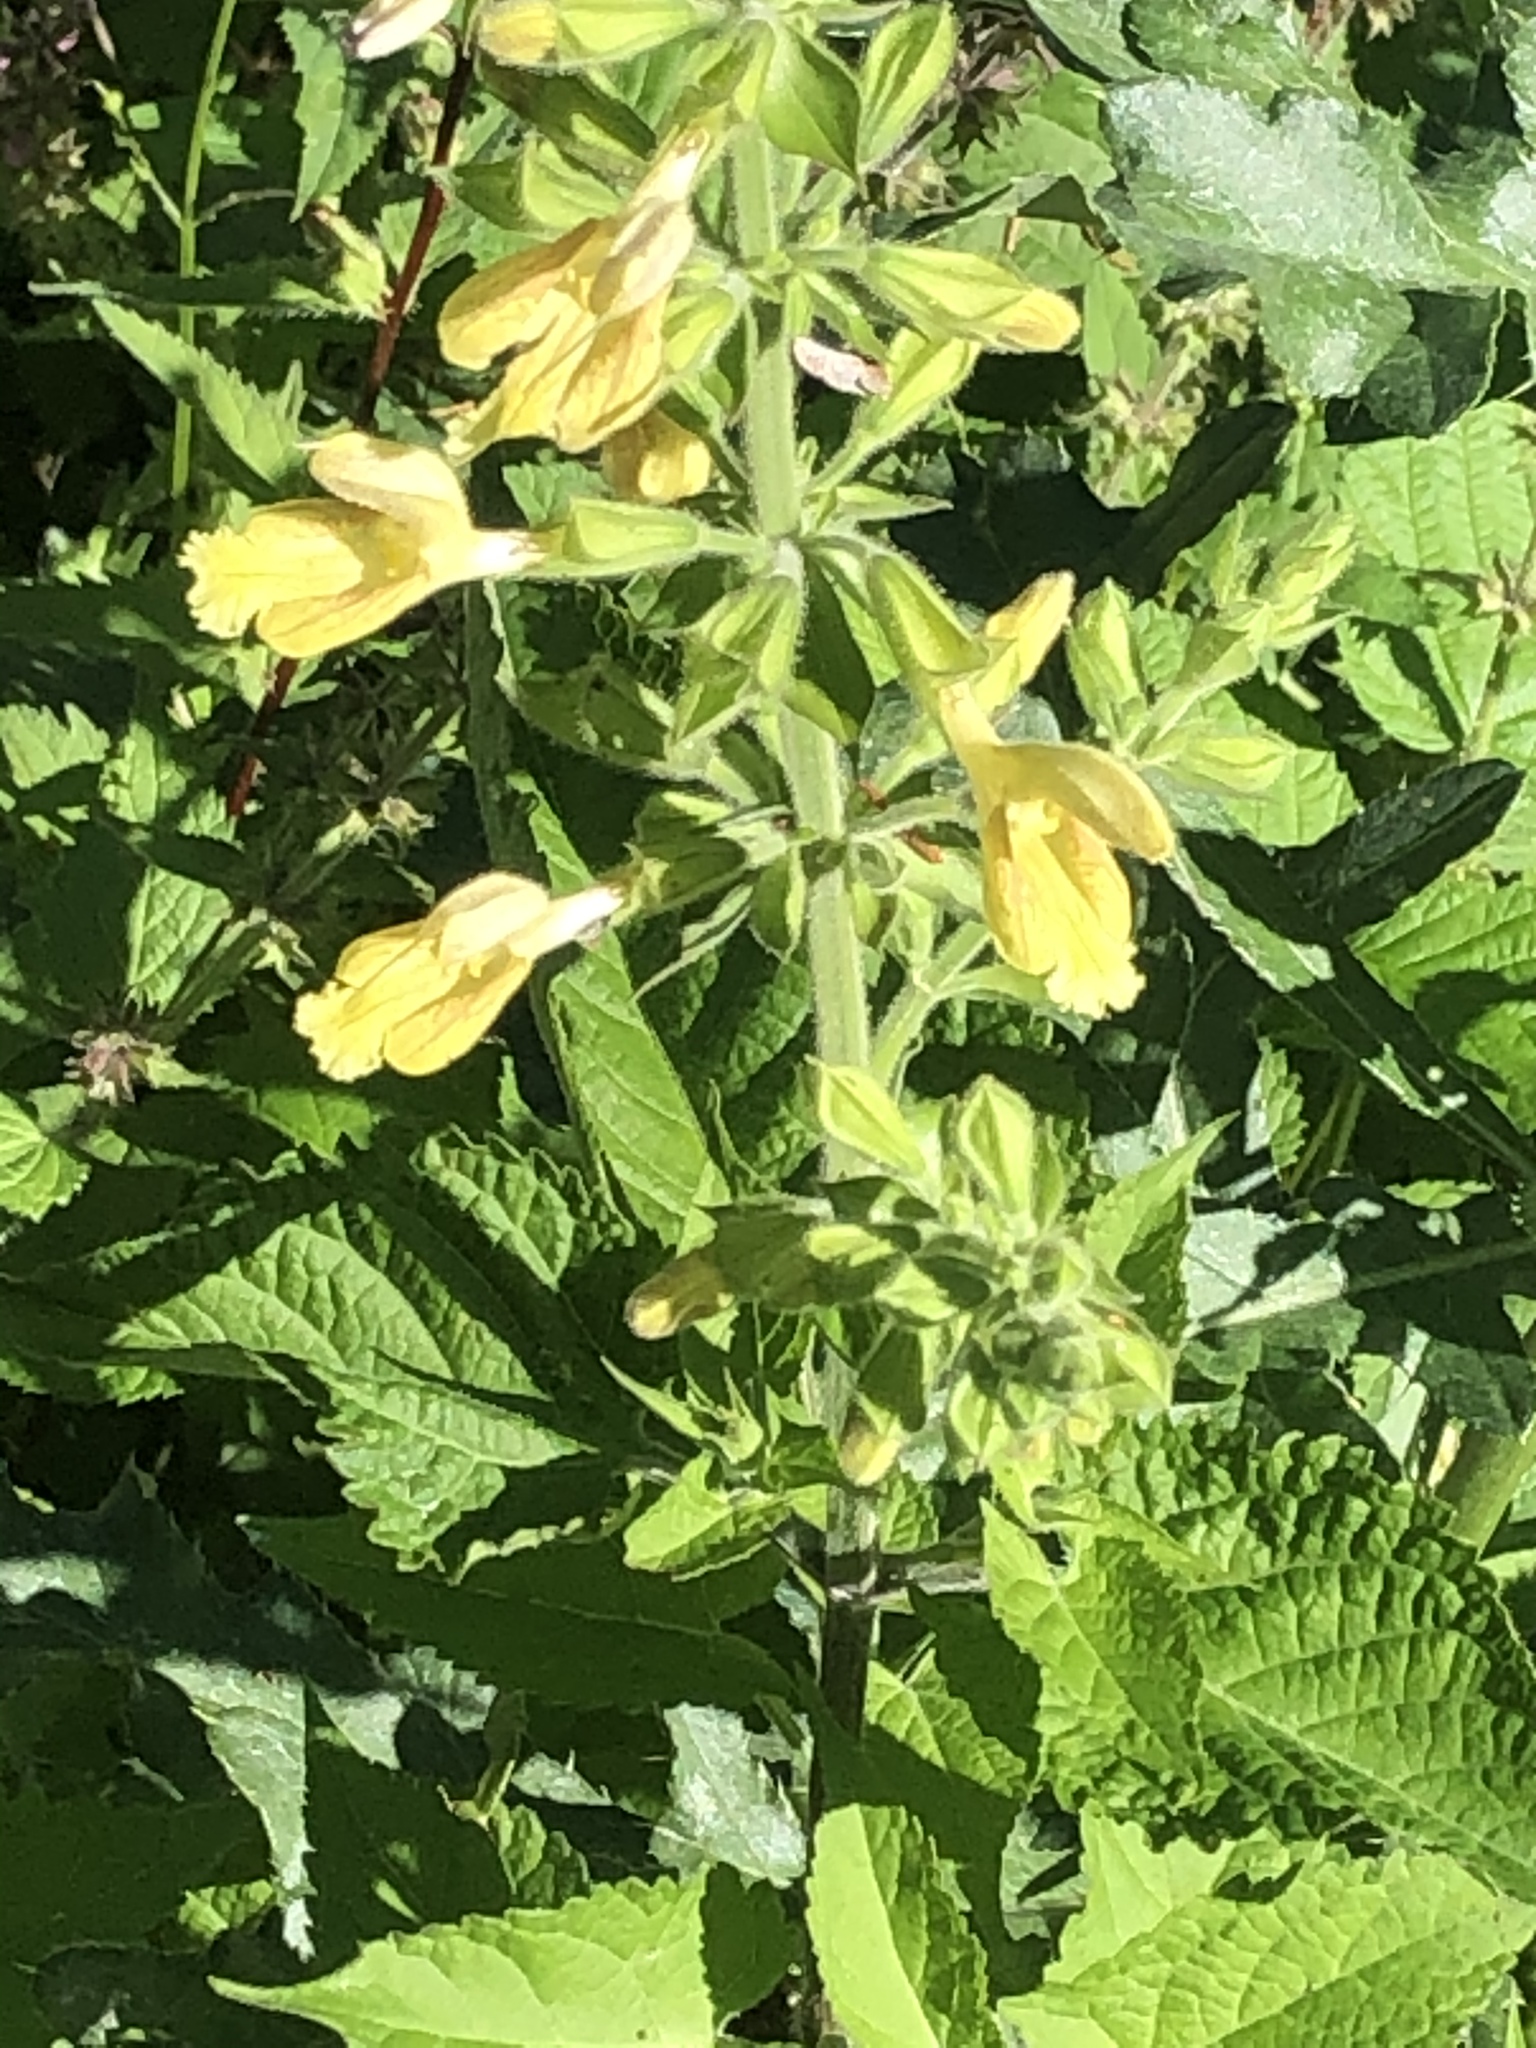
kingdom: Plantae
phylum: Tracheophyta
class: Magnoliopsida
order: Lamiales
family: Lamiaceae
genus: Salvia
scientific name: Salvia glutinosa
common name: Sticky clary
